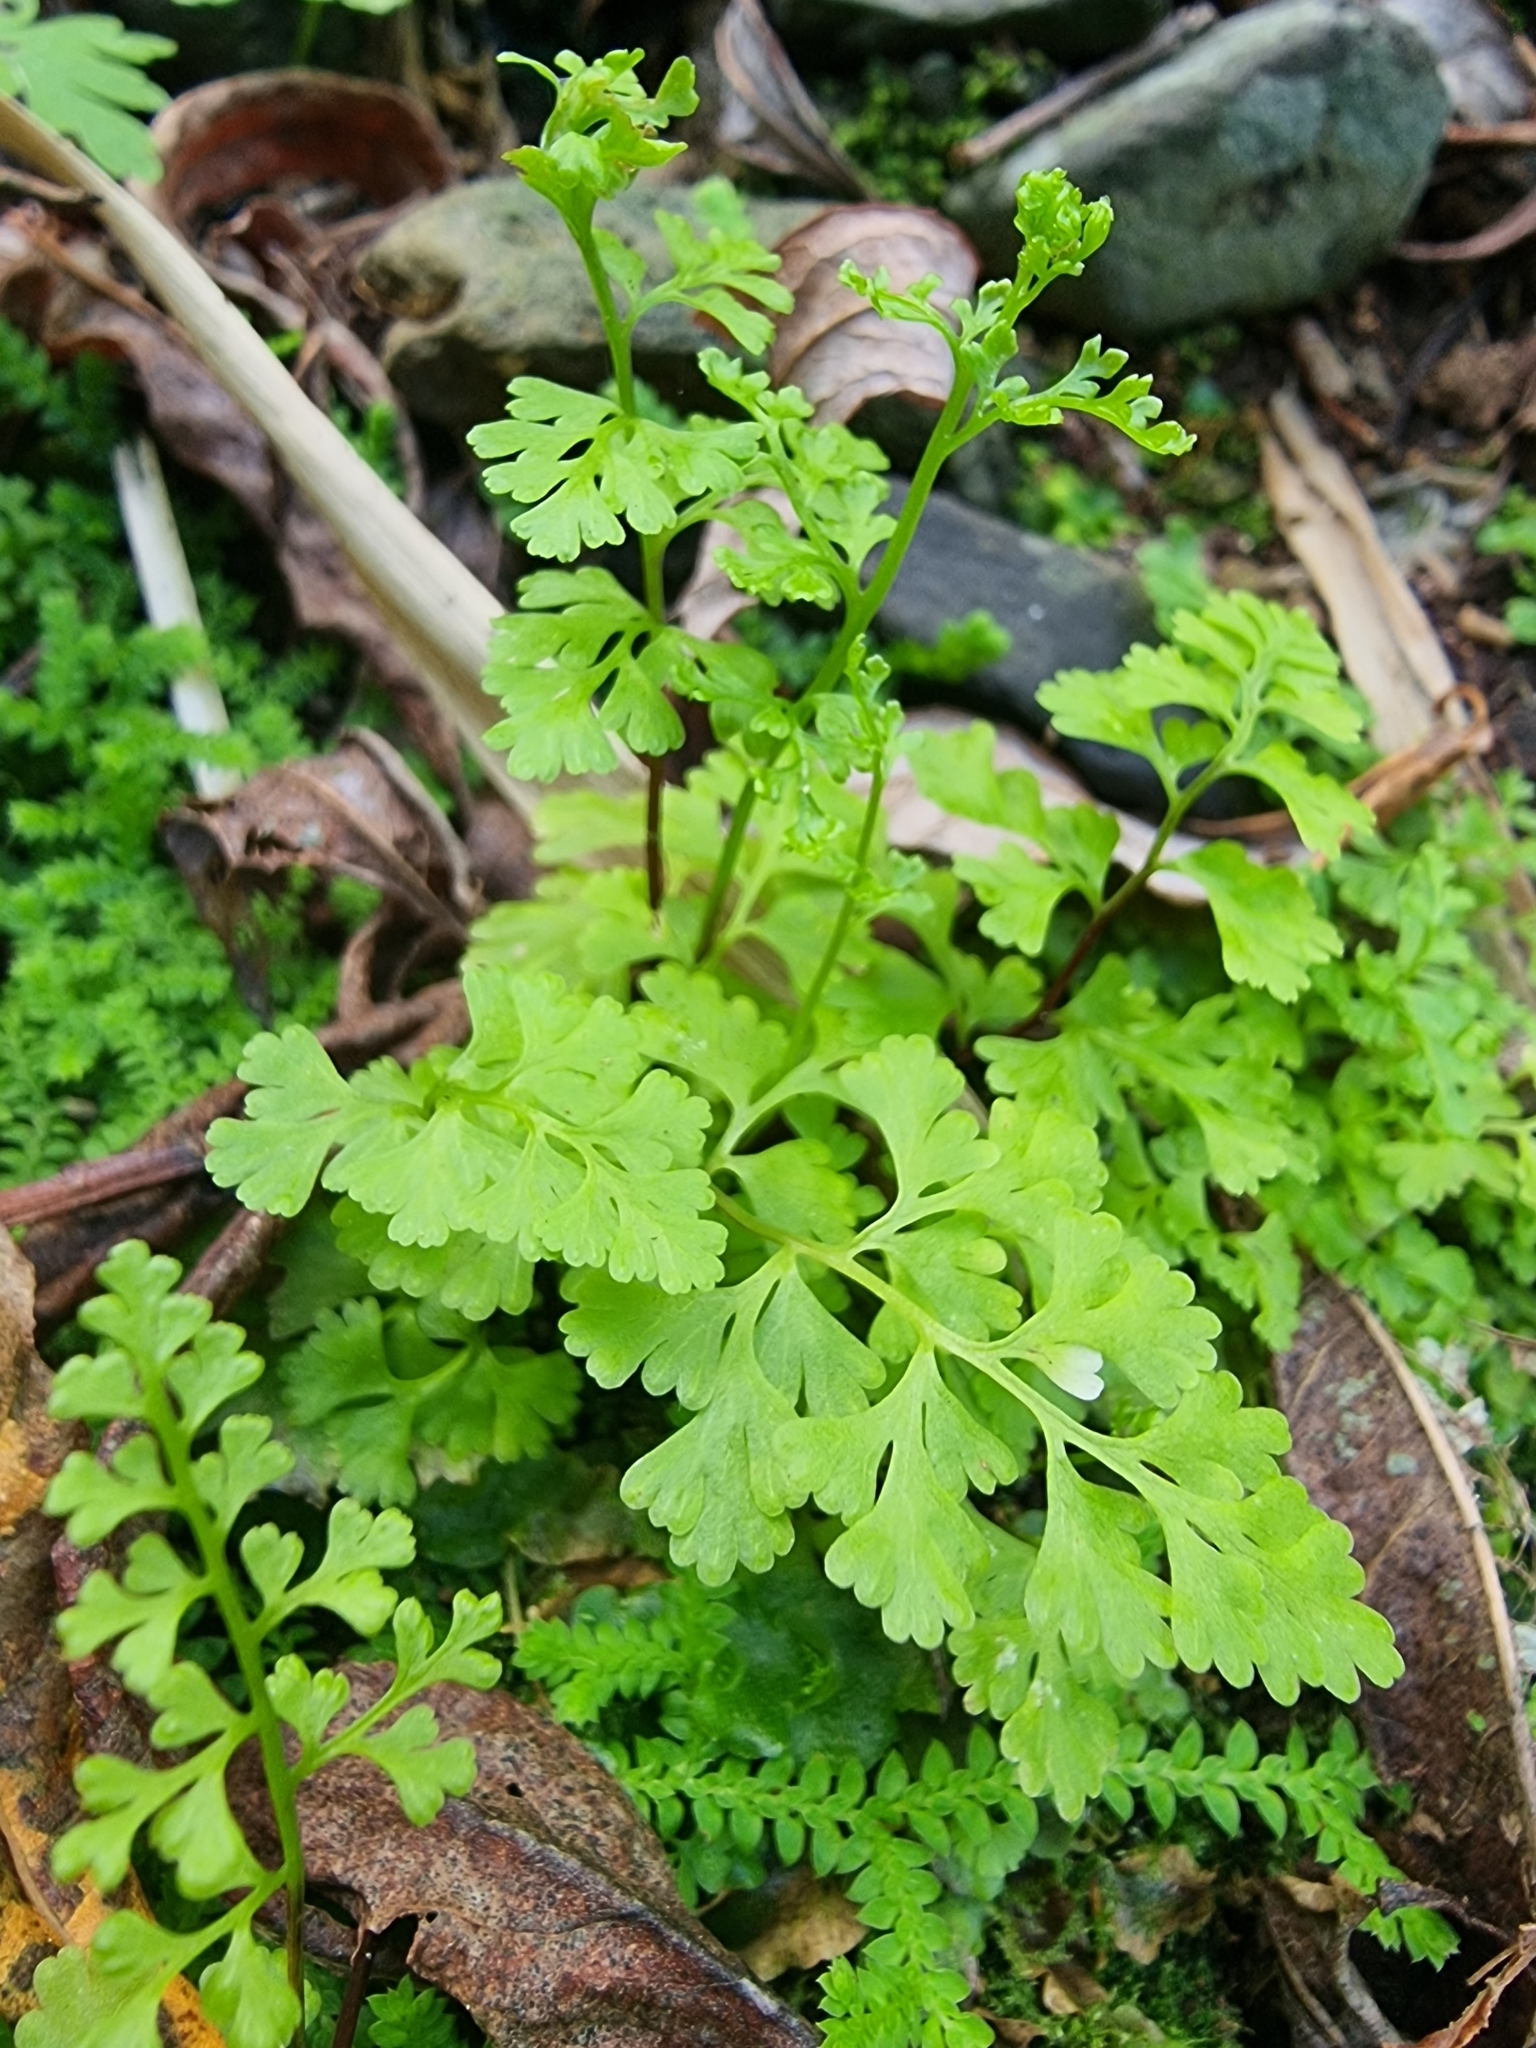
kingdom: Plantae
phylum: Tracheophyta
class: Polypodiopsida
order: Polypodiales
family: Pteridaceae
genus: Anogramma
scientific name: Anogramma leptophylla
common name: Jersey fern
